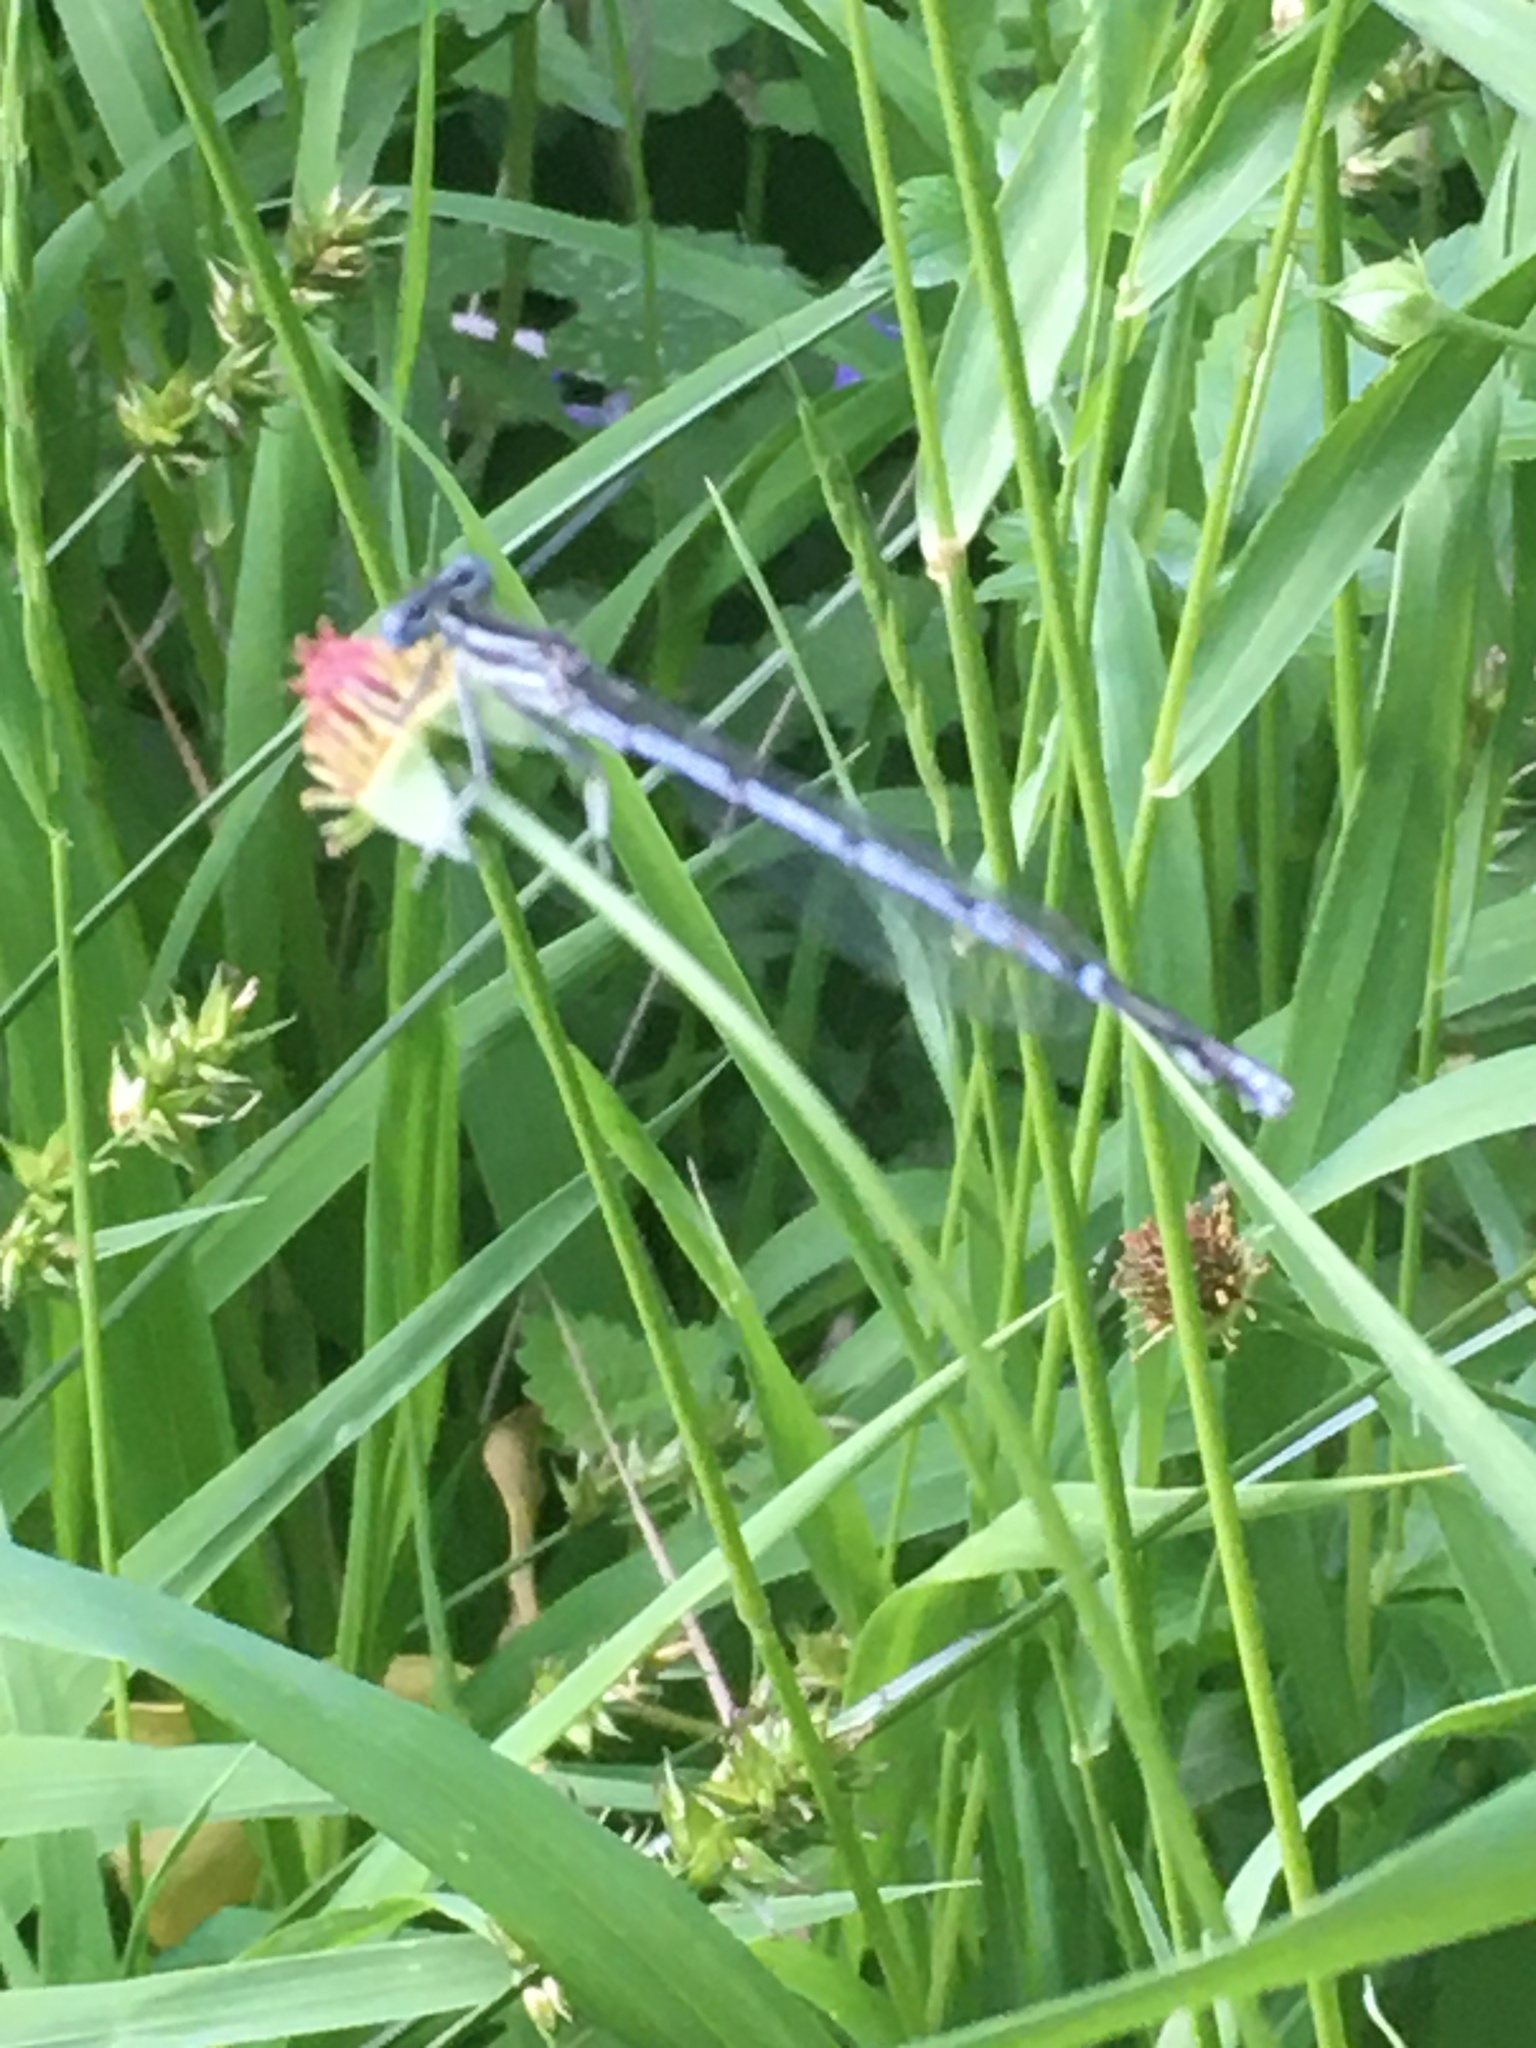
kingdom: Animalia
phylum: Arthropoda
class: Insecta
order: Odonata
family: Platycnemididae
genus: Platycnemis
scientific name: Platycnemis pennipes
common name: White-legged damselfly
